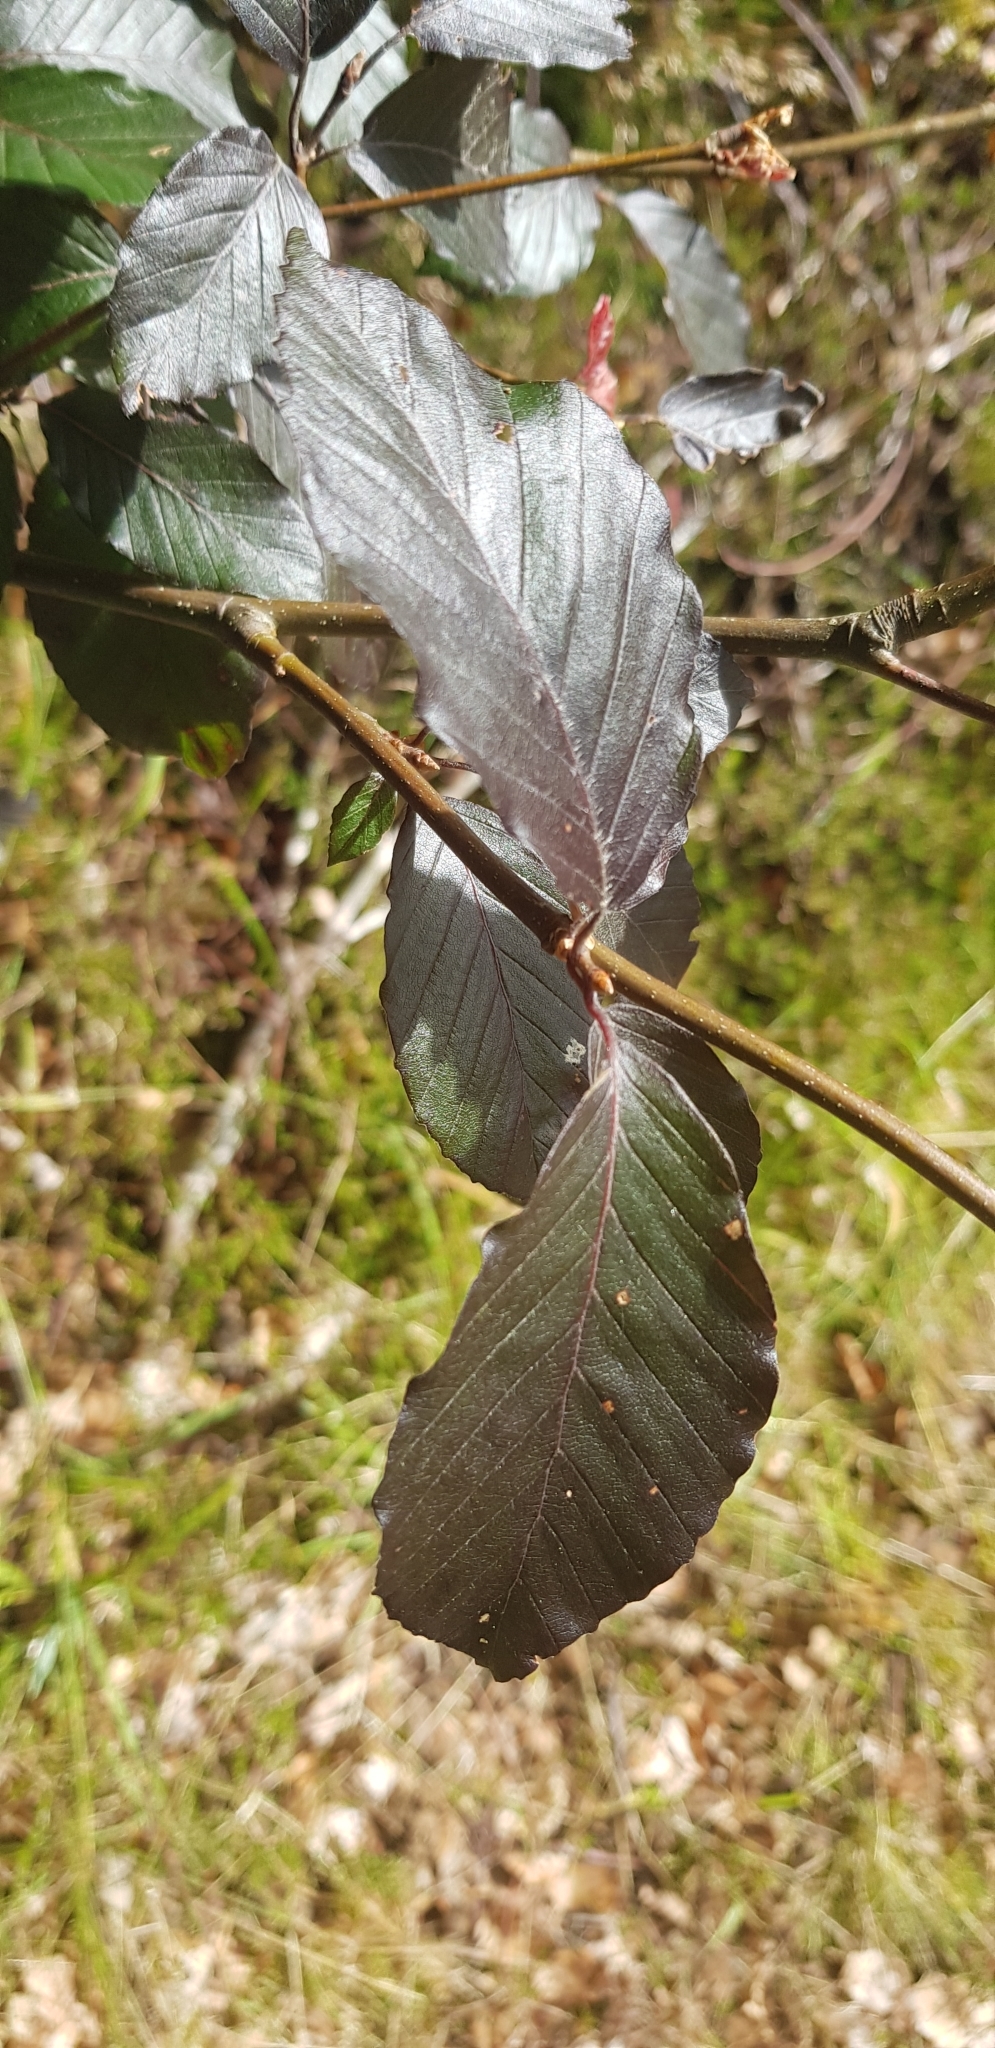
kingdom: Plantae
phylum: Tracheophyta
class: Magnoliopsida
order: Fagales
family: Fagaceae
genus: Fagus
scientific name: Fagus sylvatica
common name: Beech
